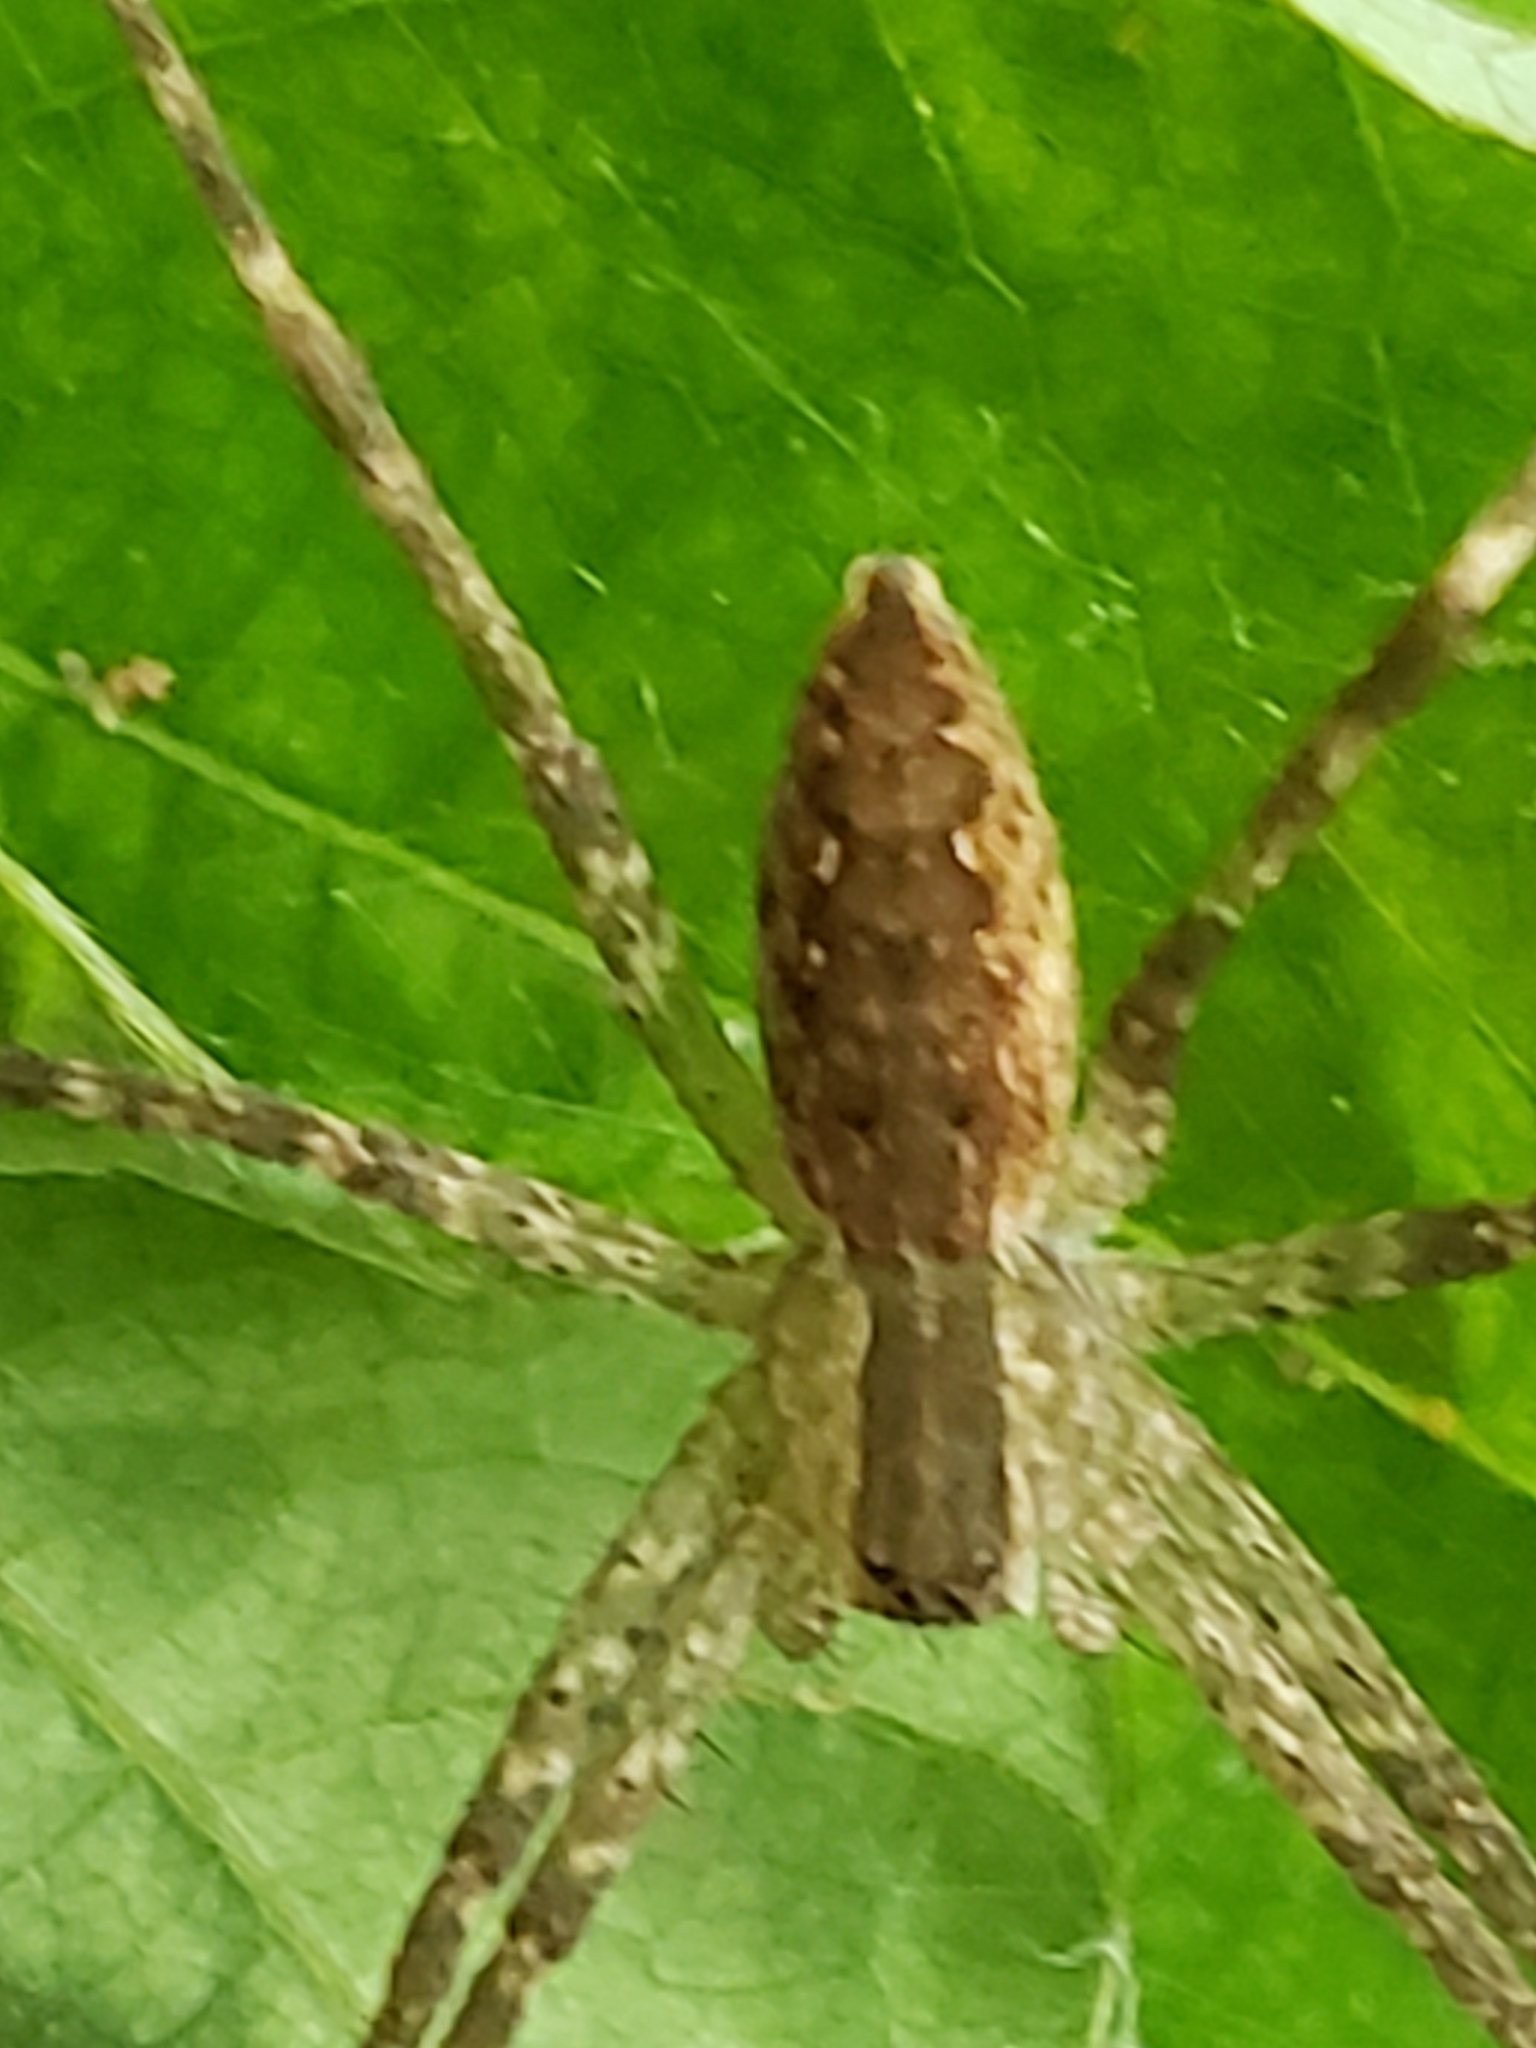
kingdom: Animalia
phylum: Arthropoda
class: Arachnida
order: Araneae
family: Pisauridae
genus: Pisaurina
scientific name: Pisaurina mira
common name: American nursery web spider
